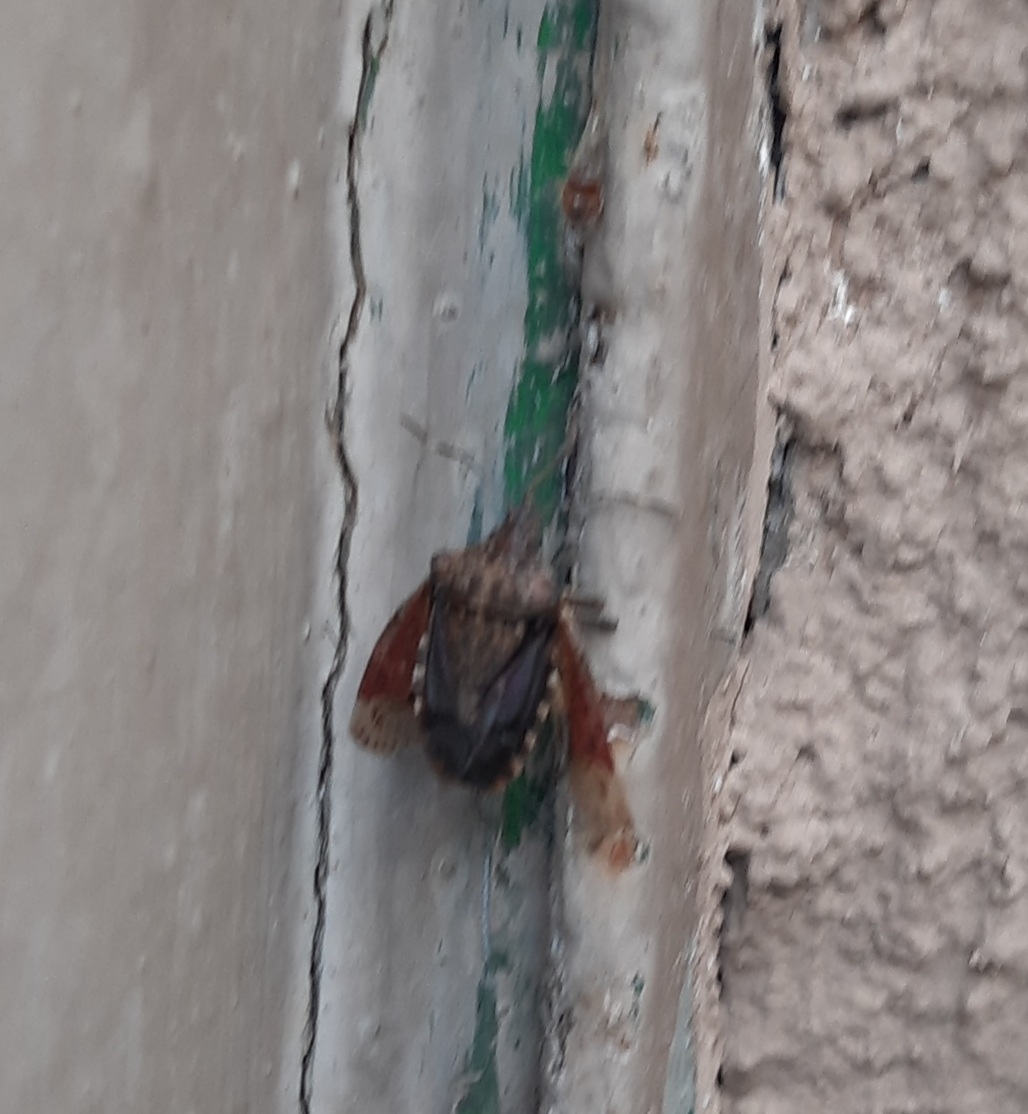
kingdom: Animalia
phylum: Arthropoda
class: Insecta
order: Hemiptera
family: Pentatomidae
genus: Halyomorpha
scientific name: Halyomorpha halys
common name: Brown marmorated stink bug
